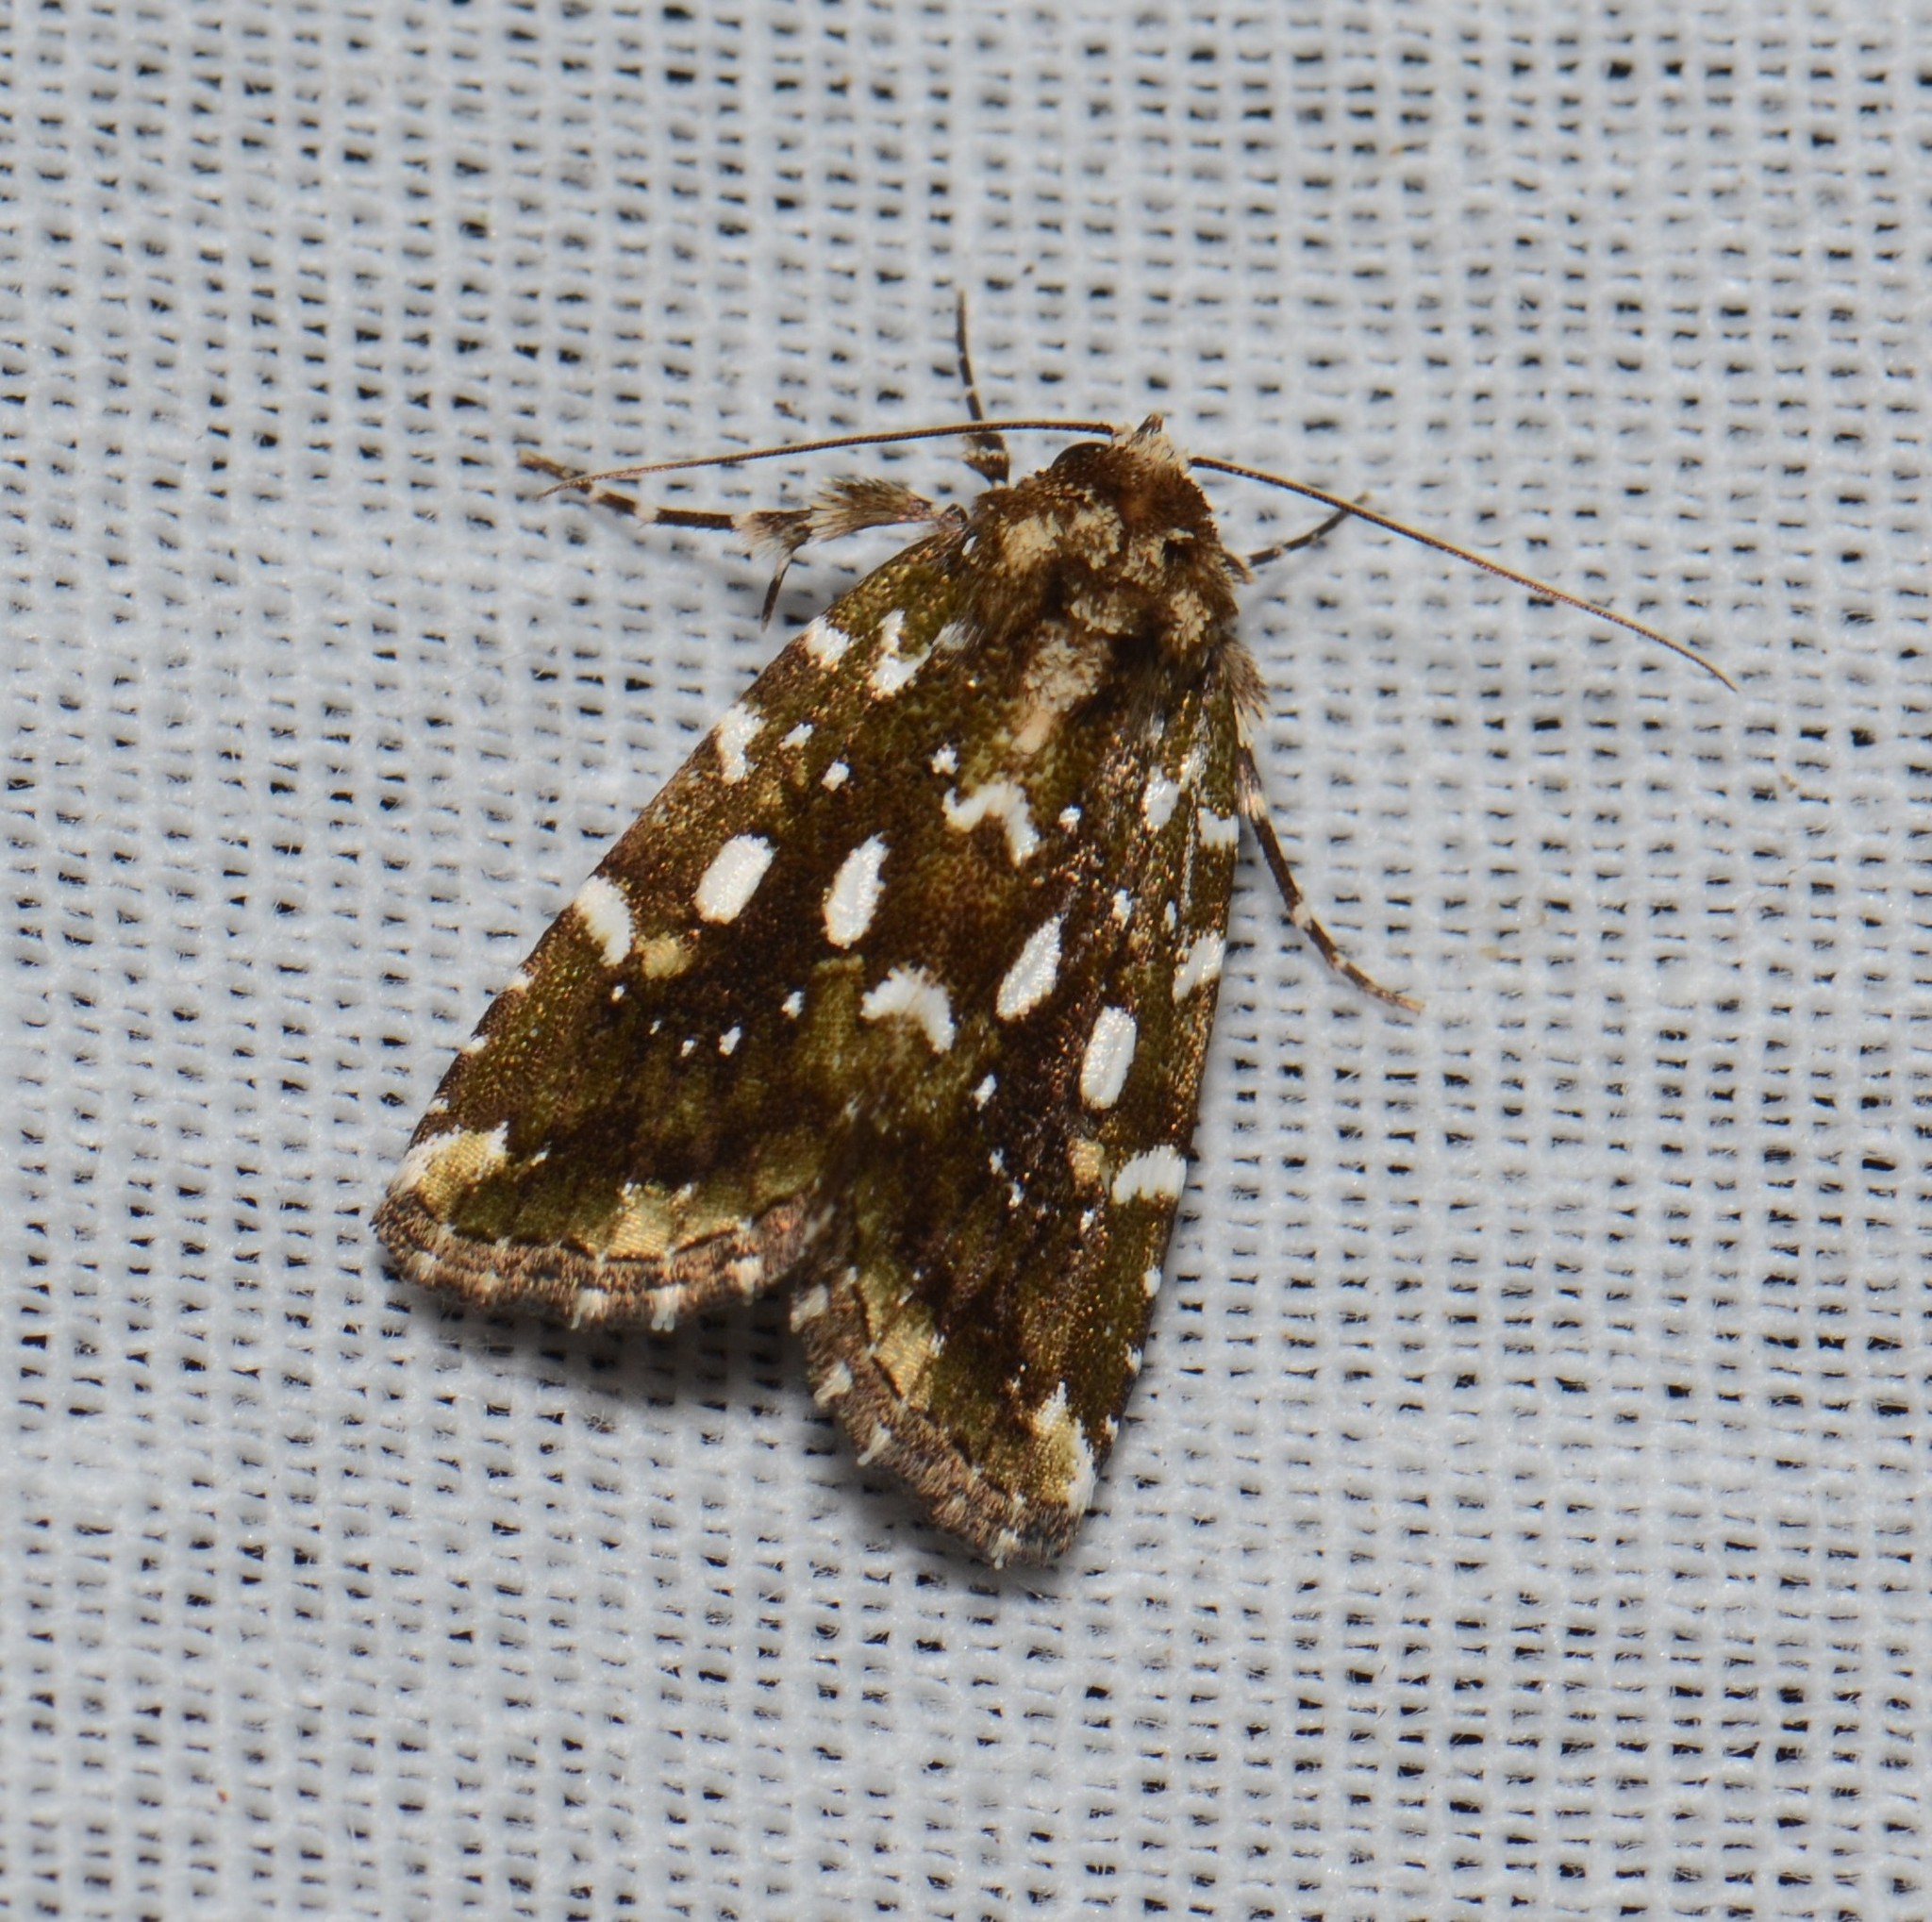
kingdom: Animalia
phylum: Arthropoda
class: Insecta
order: Lepidoptera
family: Noctuidae
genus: Callopistria
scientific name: Callopistria altigutta
